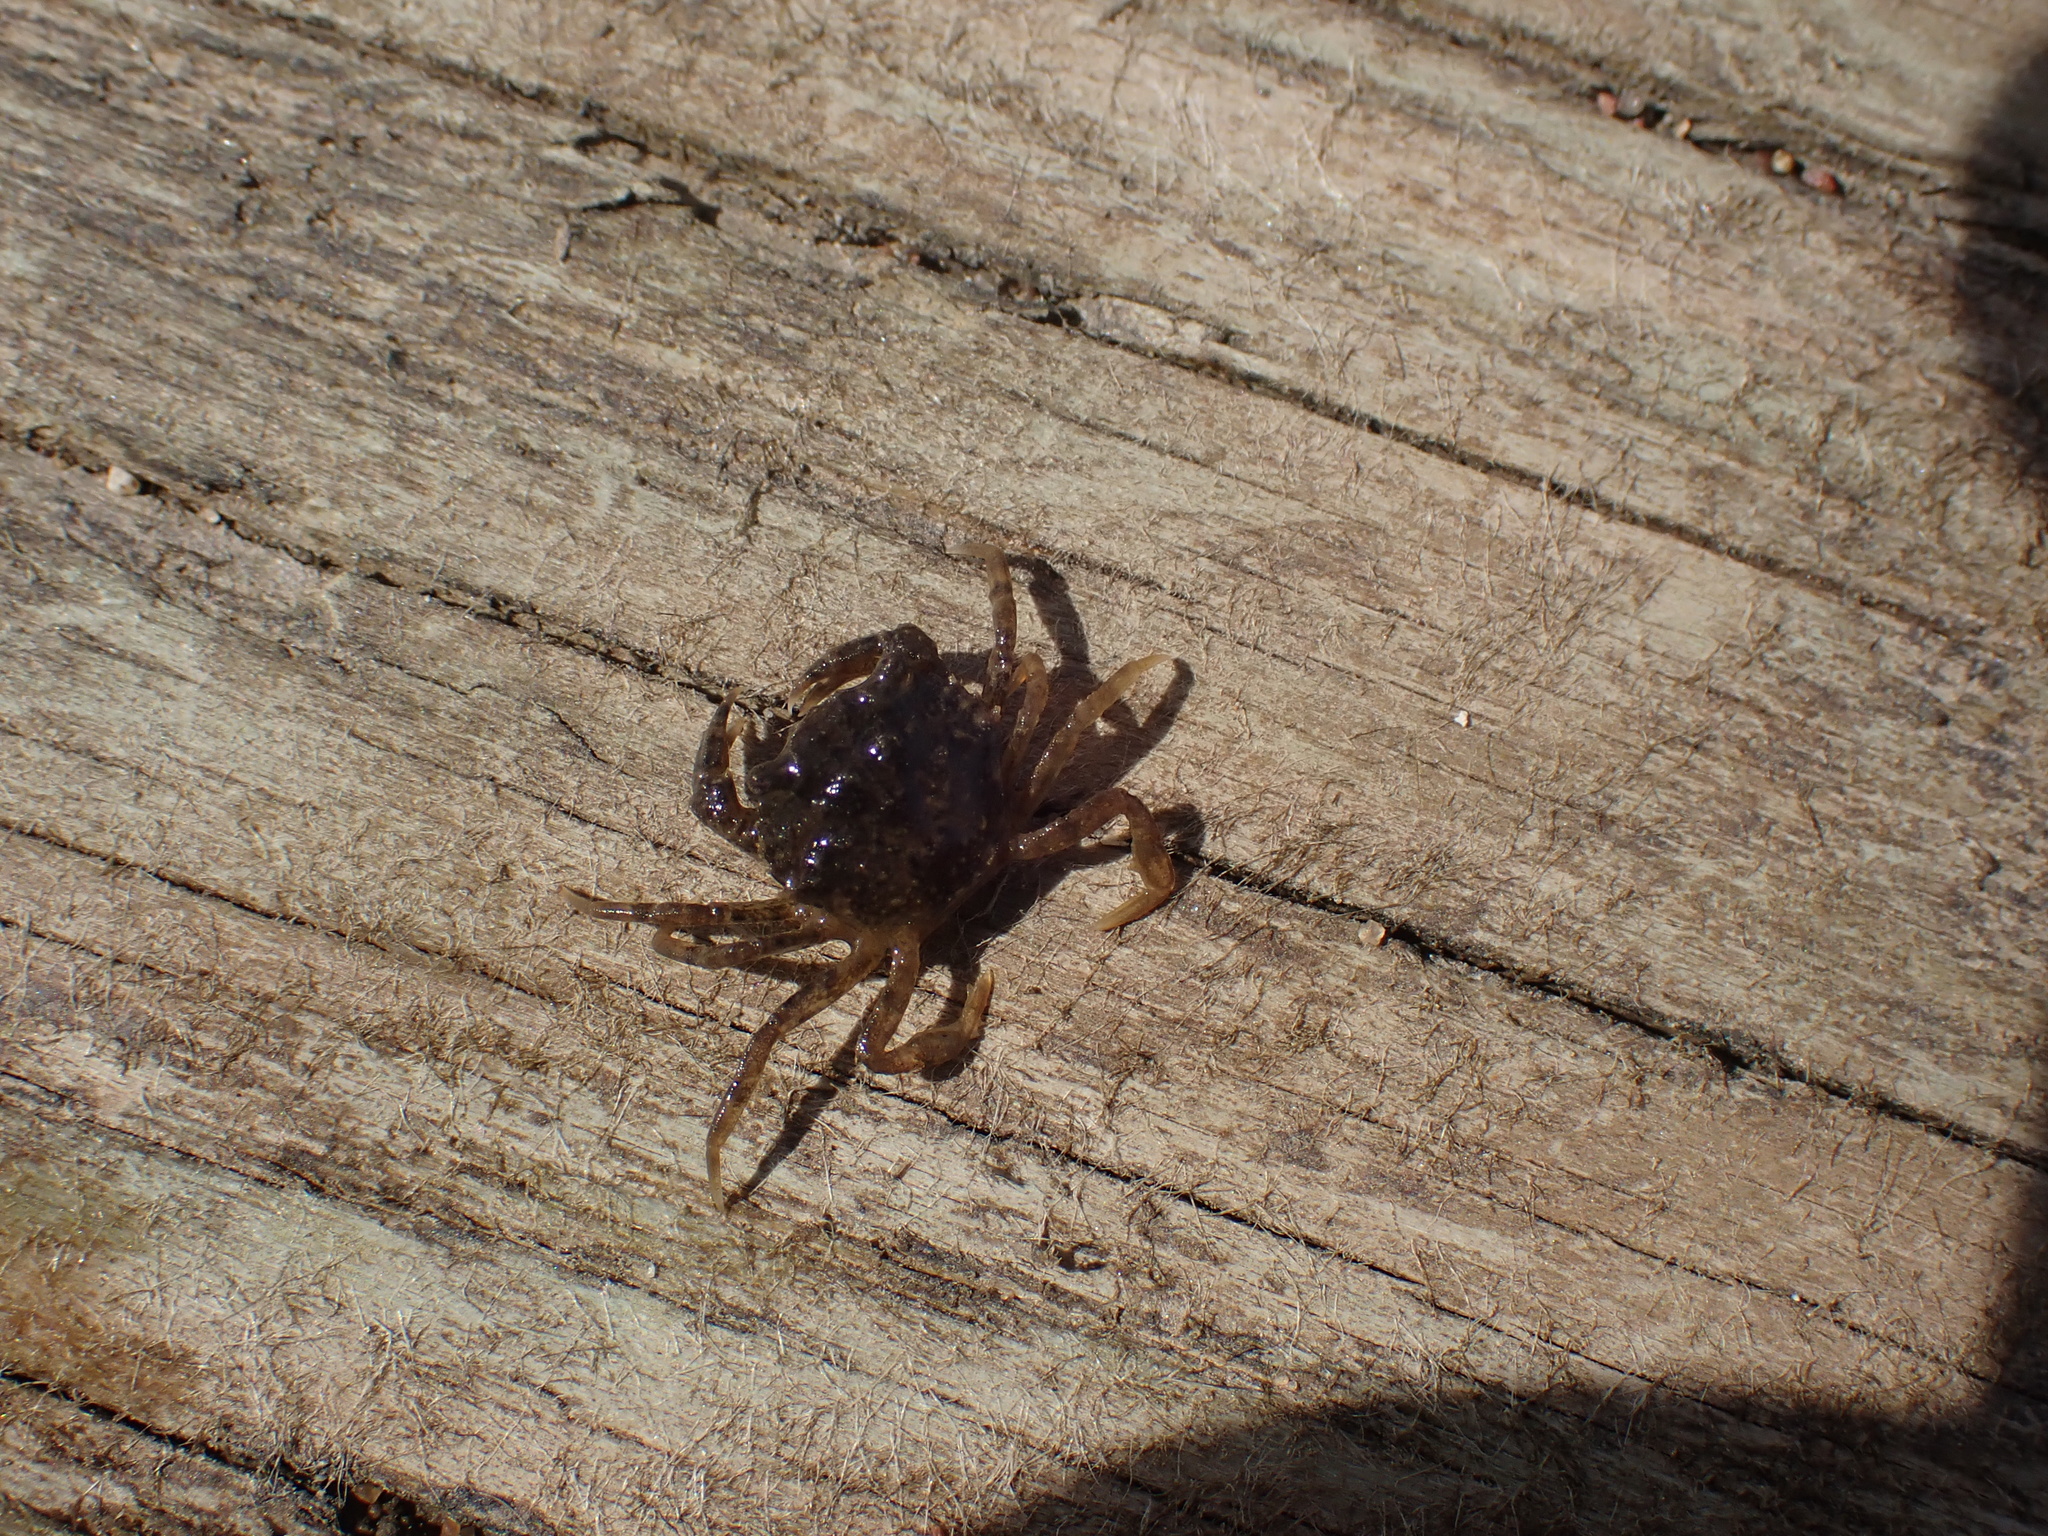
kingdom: Animalia
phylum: Arthropoda
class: Malacostraca
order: Decapoda
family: Carcinidae
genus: Carcinus
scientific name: Carcinus maenas
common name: European green crab
